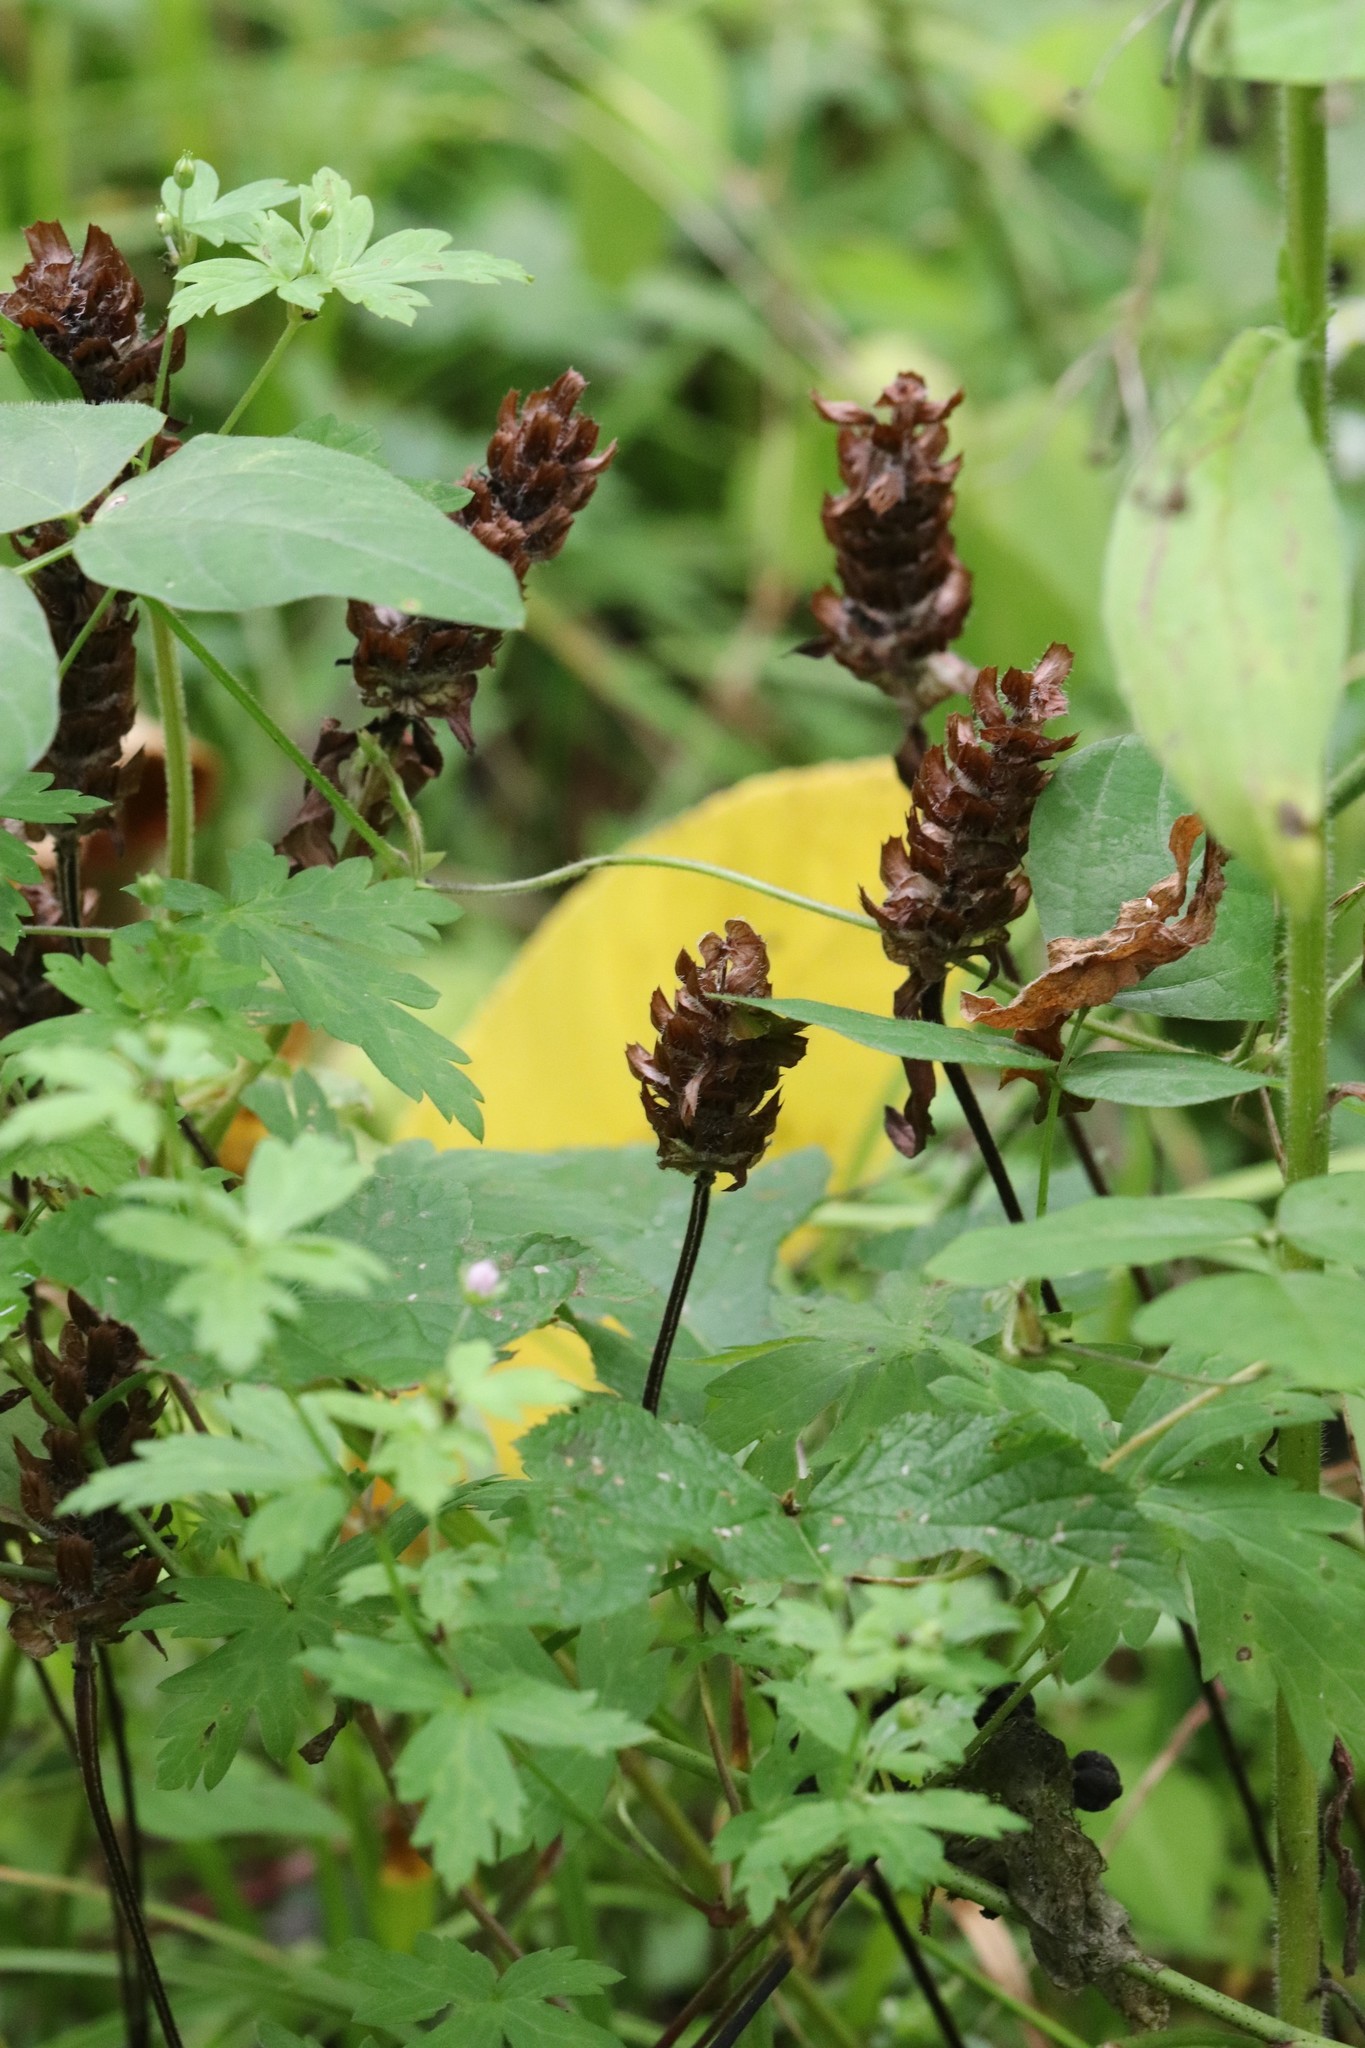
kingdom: Plantae
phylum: Tracheophyta
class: Magnoliopsida
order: Lamiales
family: Lamiaceae
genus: Prunella
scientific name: Prunella vulgaris
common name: Heal-all
